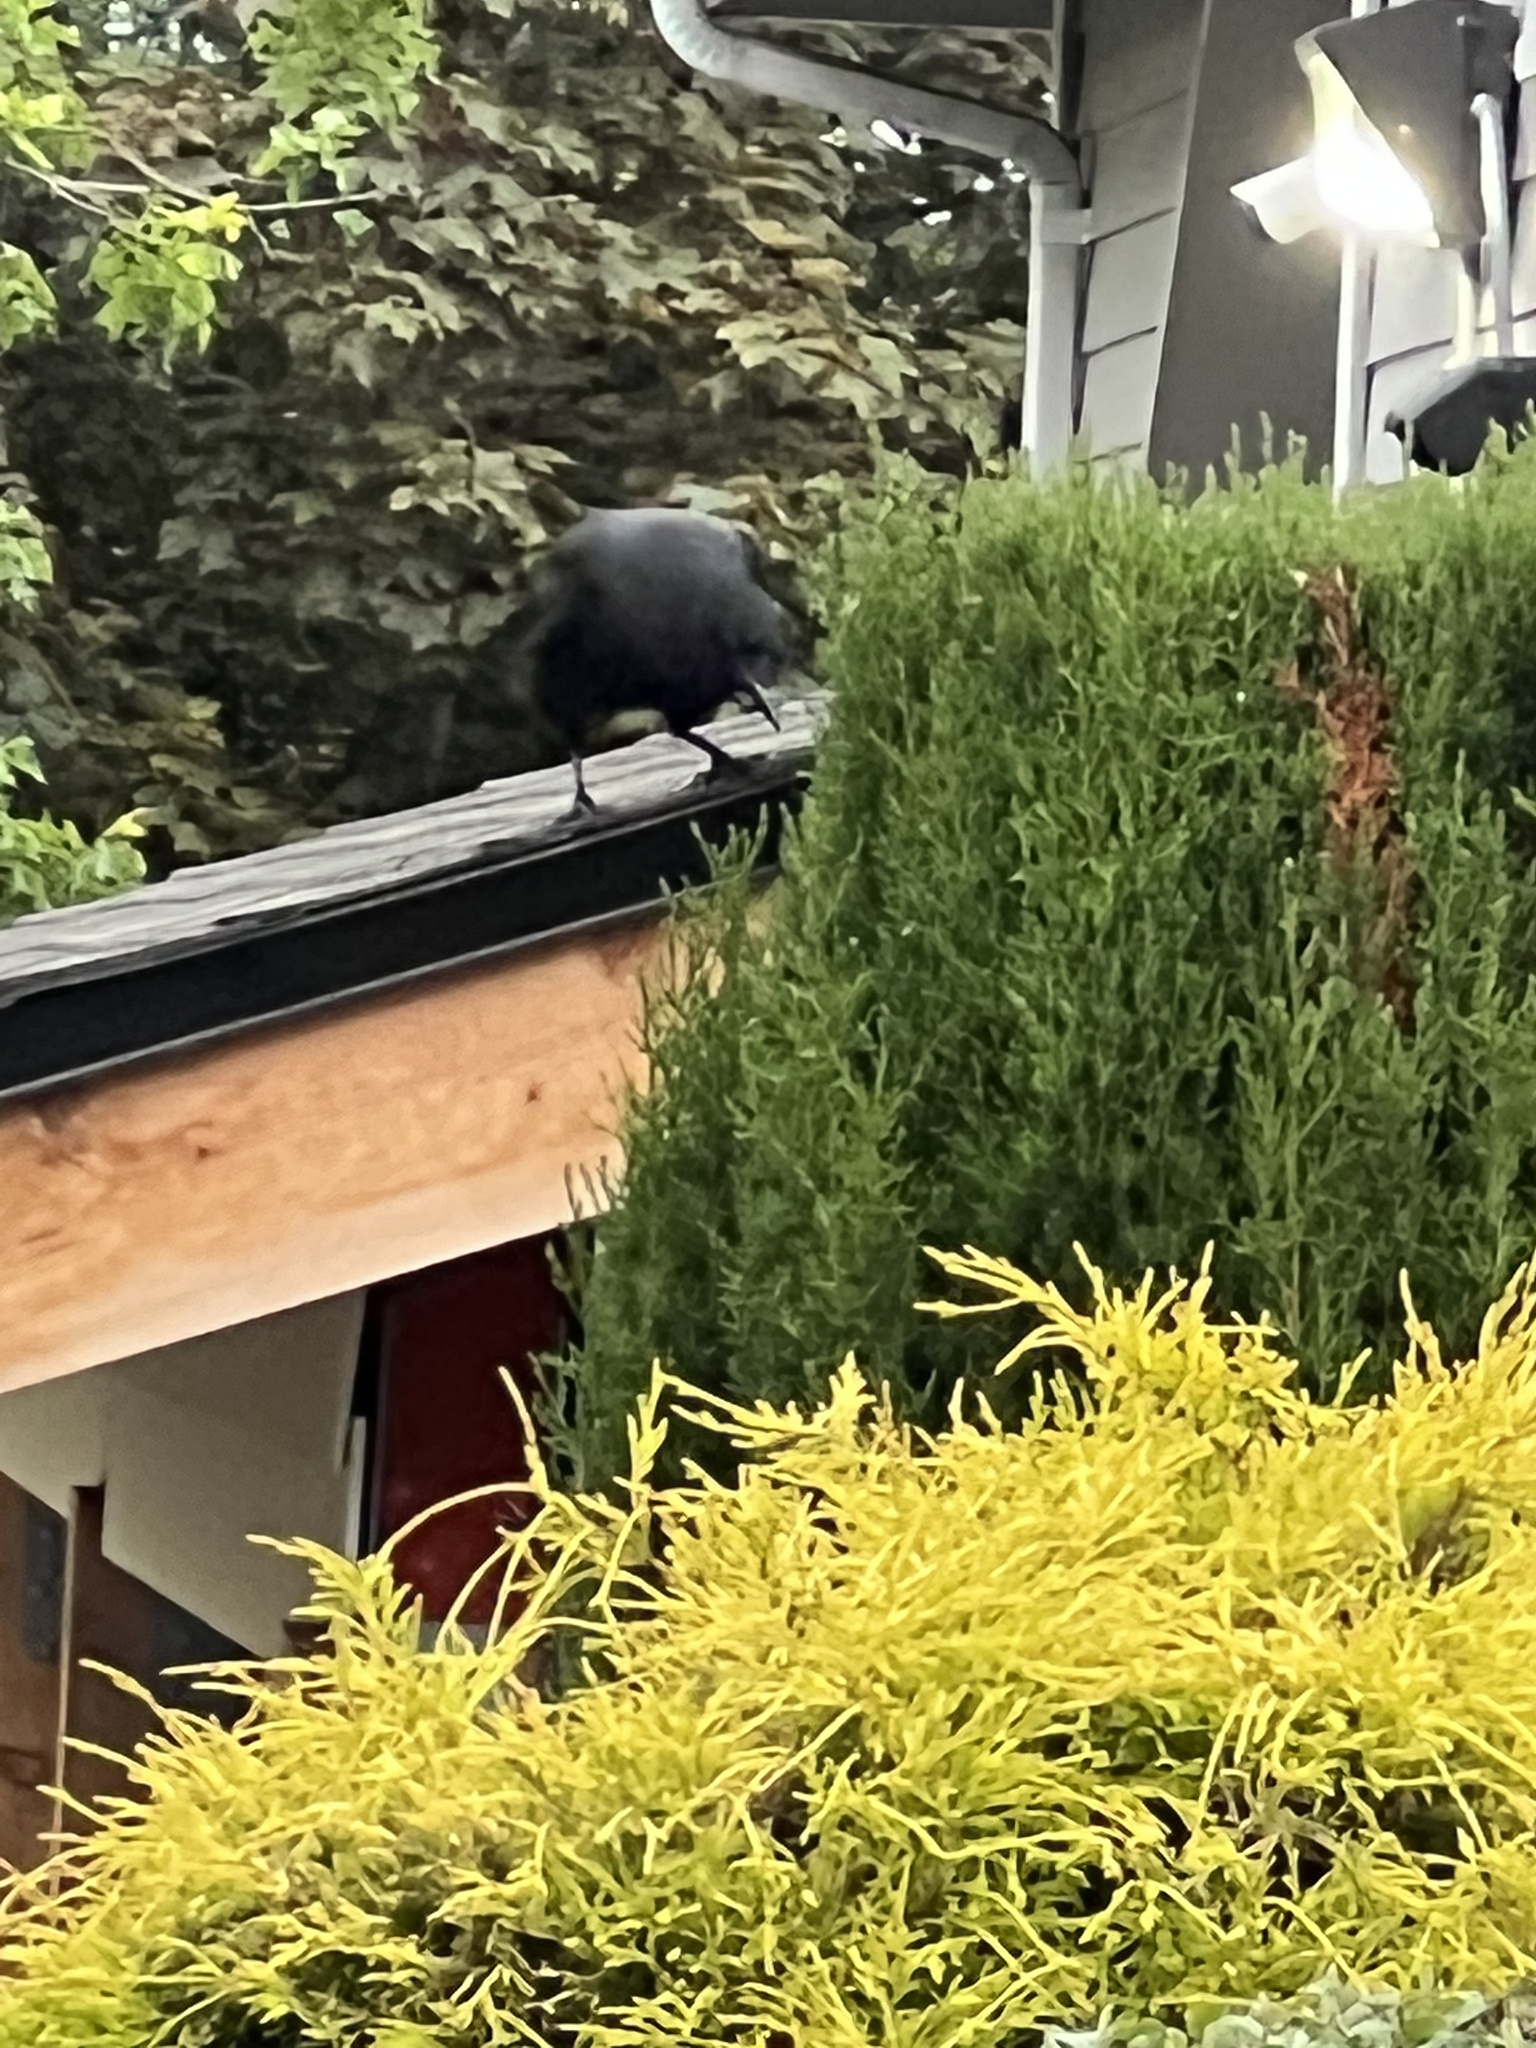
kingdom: Animalia
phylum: Chordata
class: Aves
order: Passeriformes
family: Corvidae
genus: Corvus
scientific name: Corvus brachyrhynchos
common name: American crow
